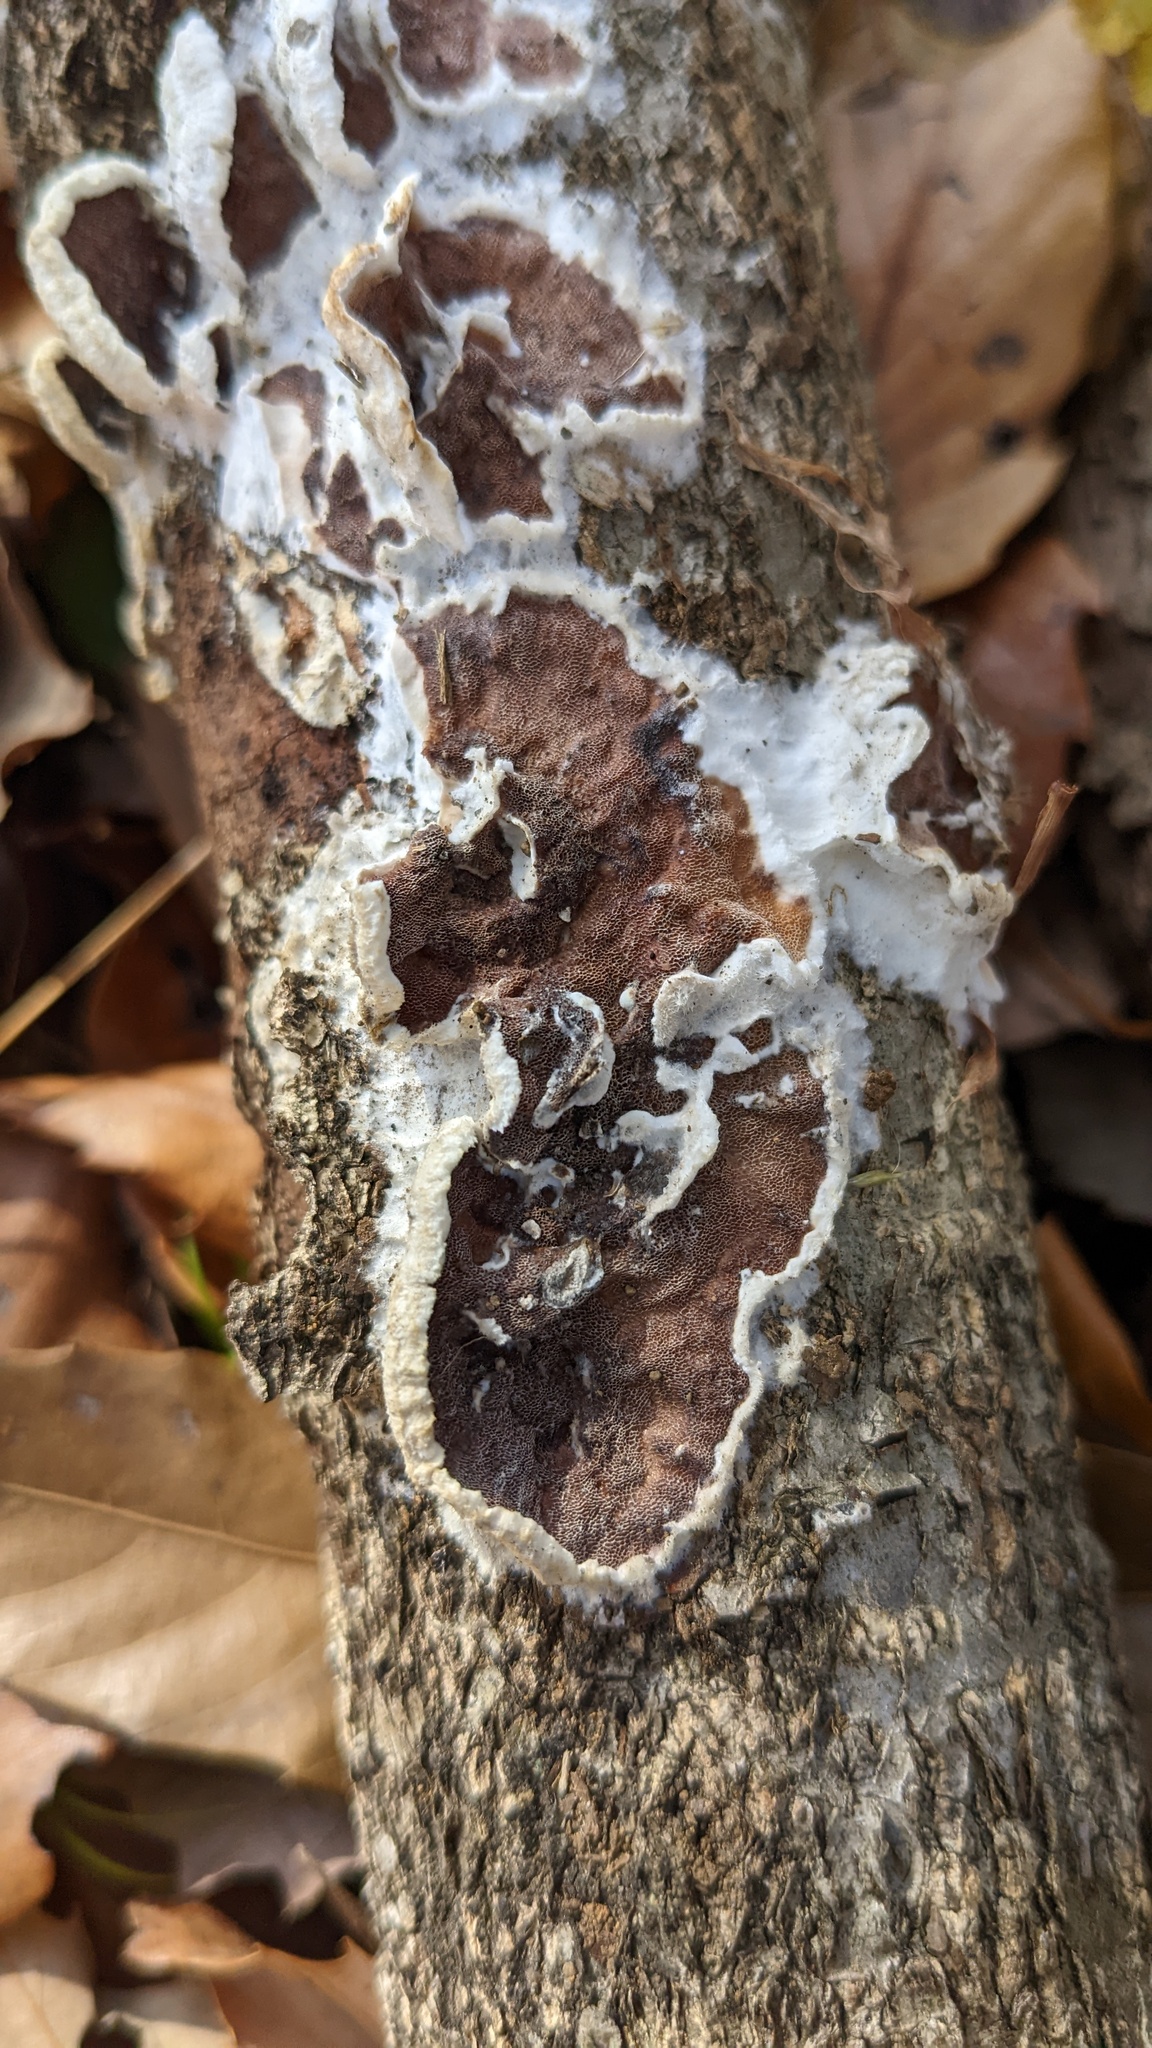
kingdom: Fungi
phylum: Basidiomycota
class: Agaricomycetes
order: Polyporales
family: Irpicaceae
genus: Vitreoporus
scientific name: Vitreoporus dichrous
